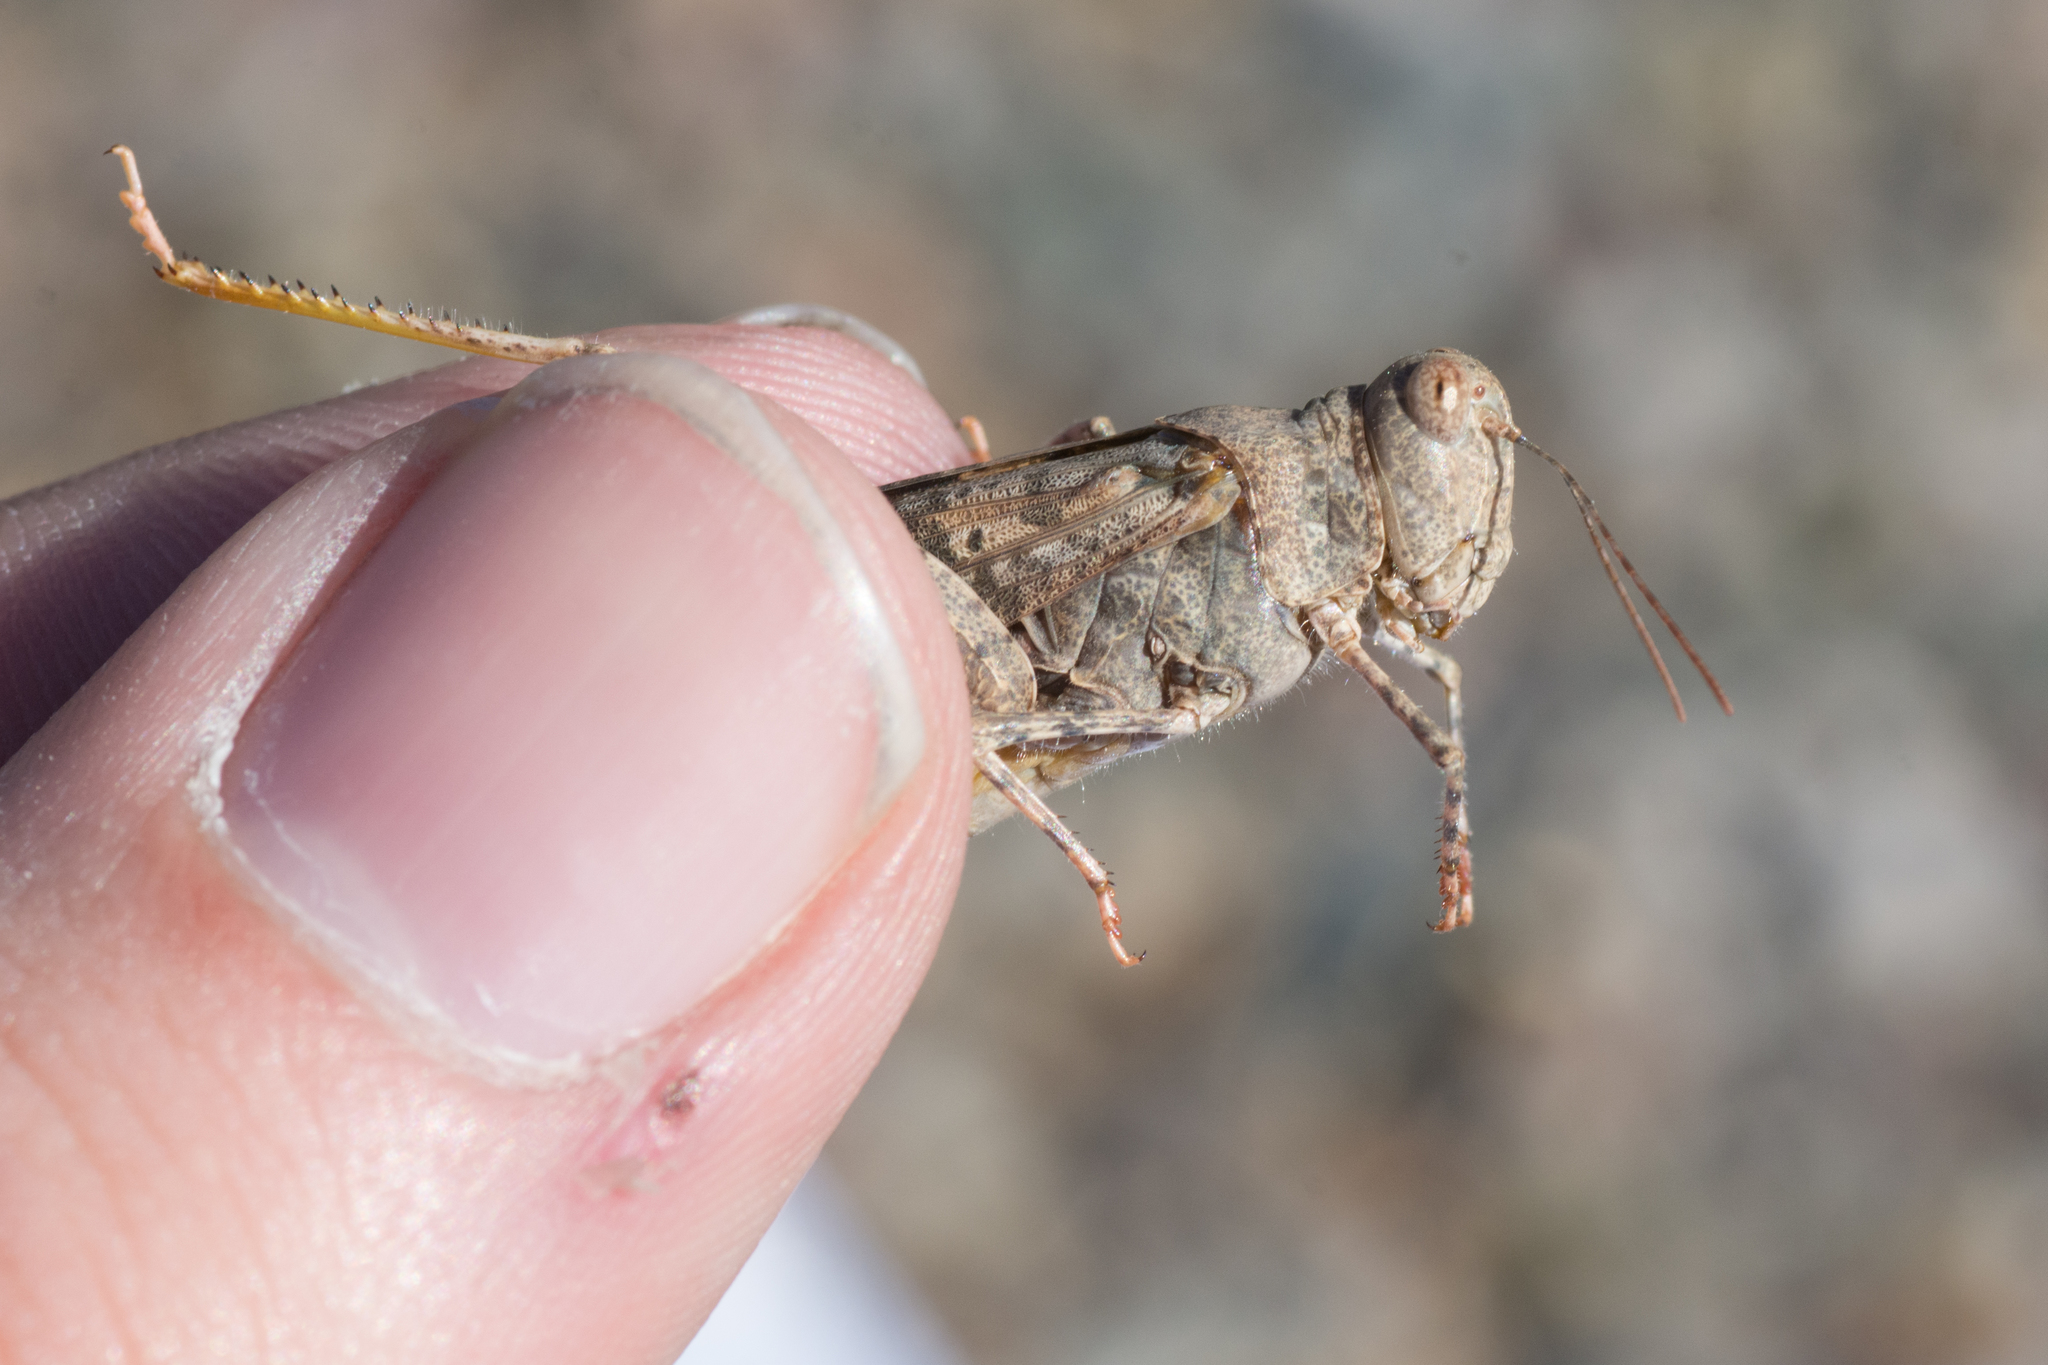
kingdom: Animalia
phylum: Arthropoda
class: Insecta
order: Orthoptera
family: Acrididae
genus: Trimerotropis
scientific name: Trimerotropis pallidipennis
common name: Pallid-winged grasshopper
